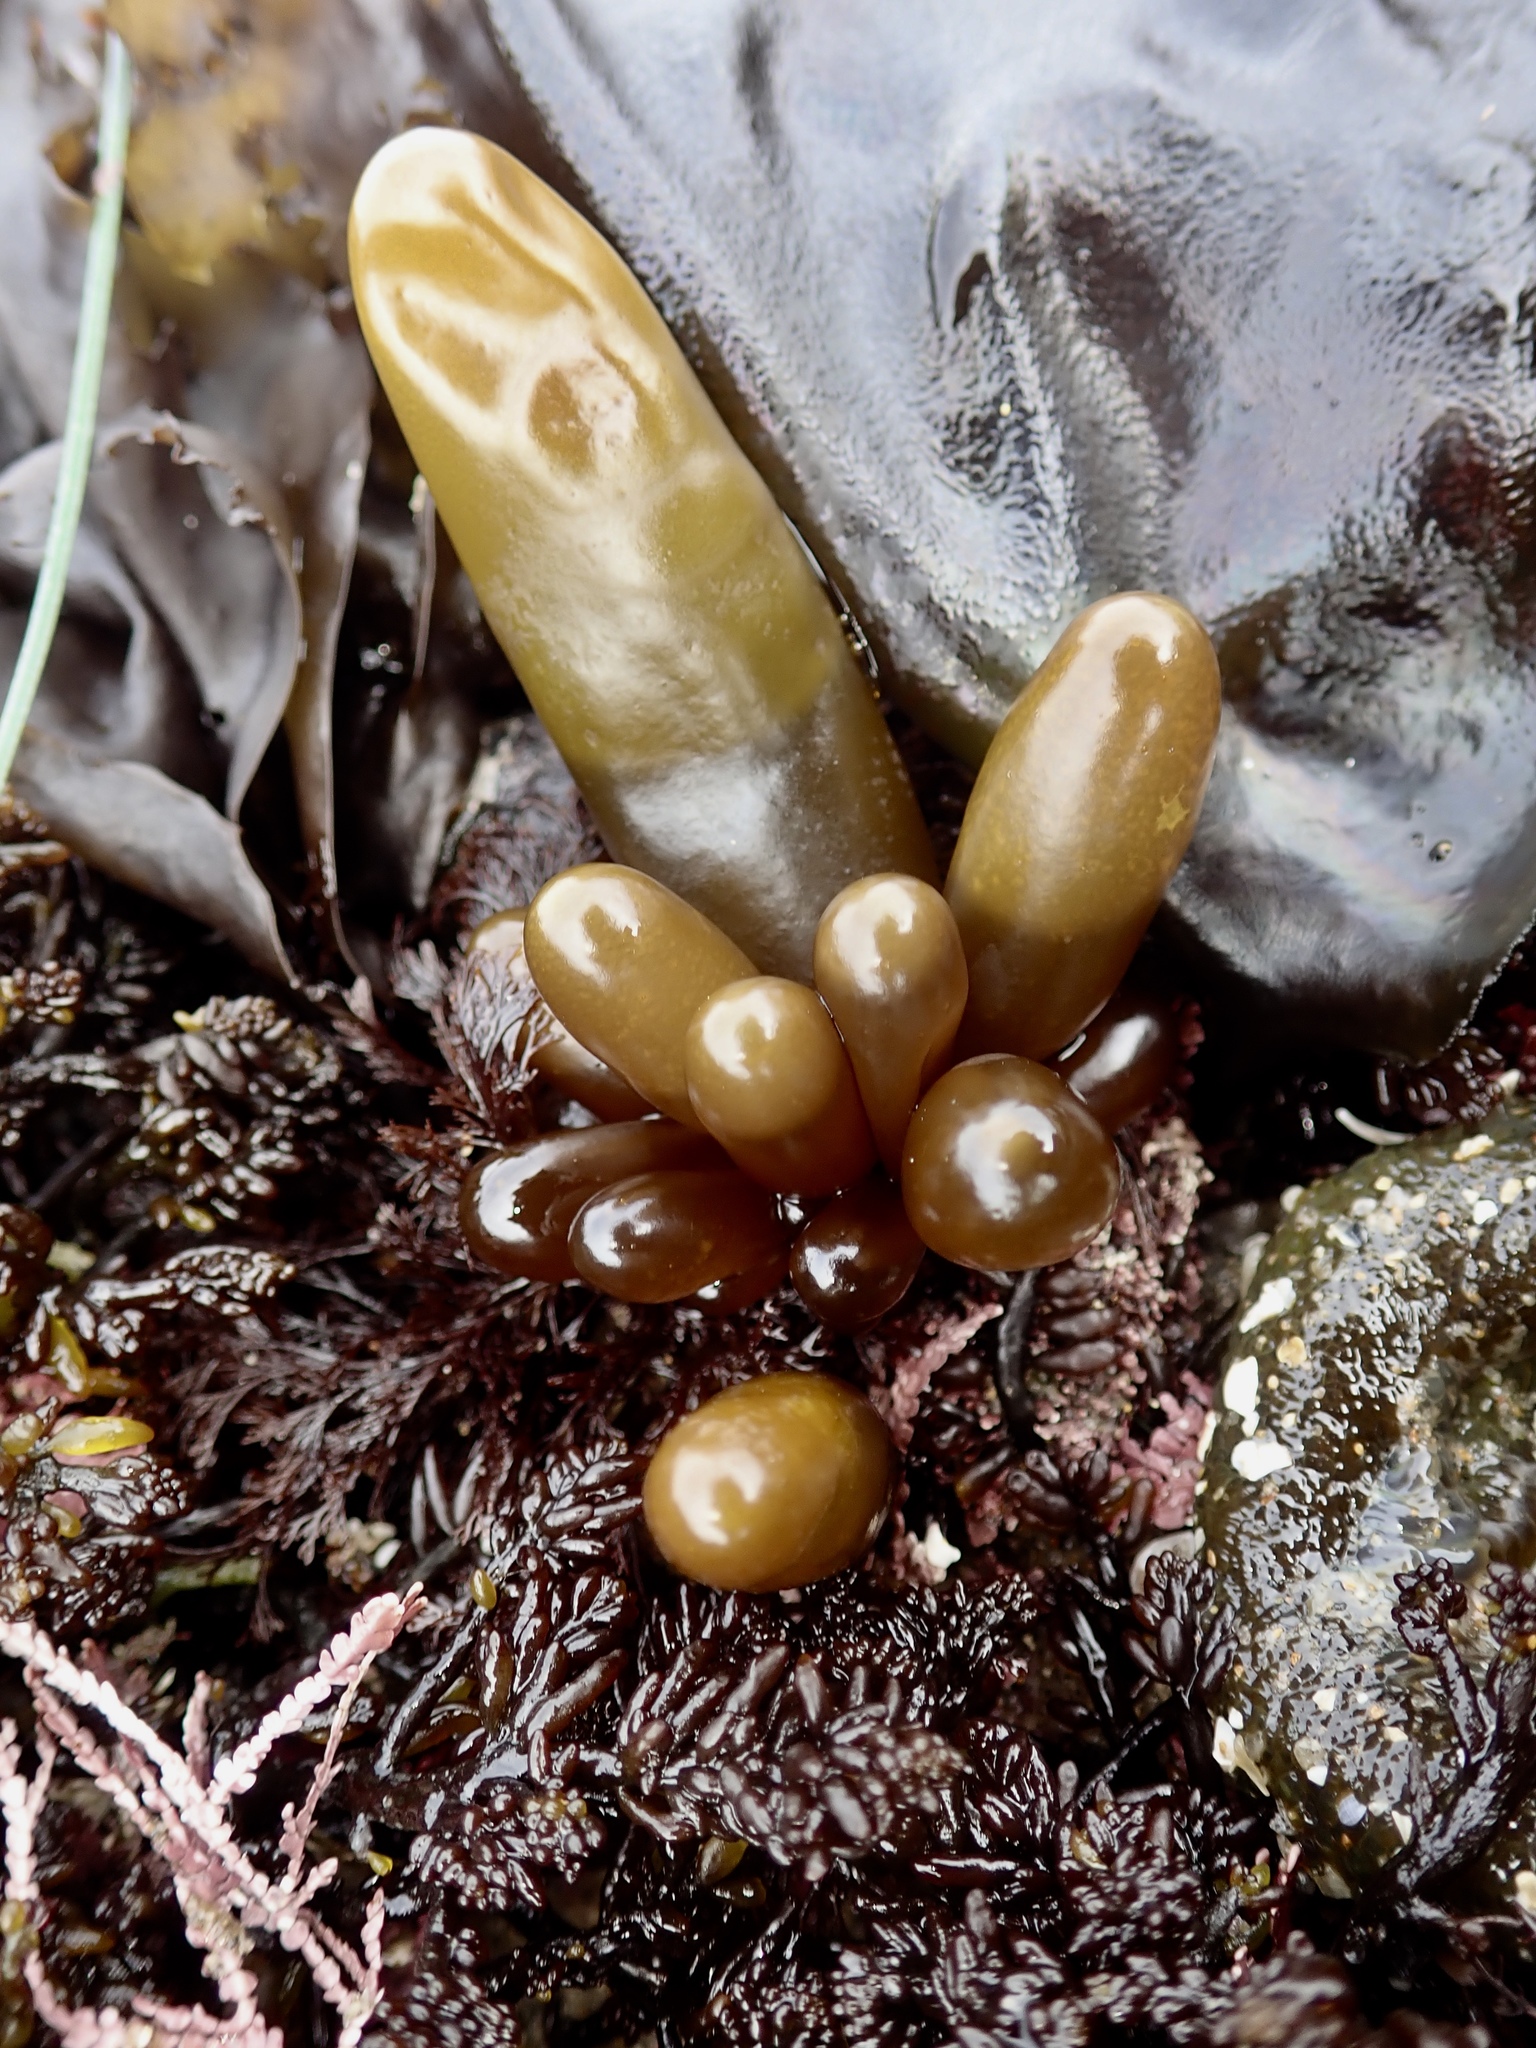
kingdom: Plantae
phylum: Rhodophyta
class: Florideophyceae
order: Palmariales
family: Palmariaceae
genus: Halosaccion
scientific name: Halosaccion glandiforme
